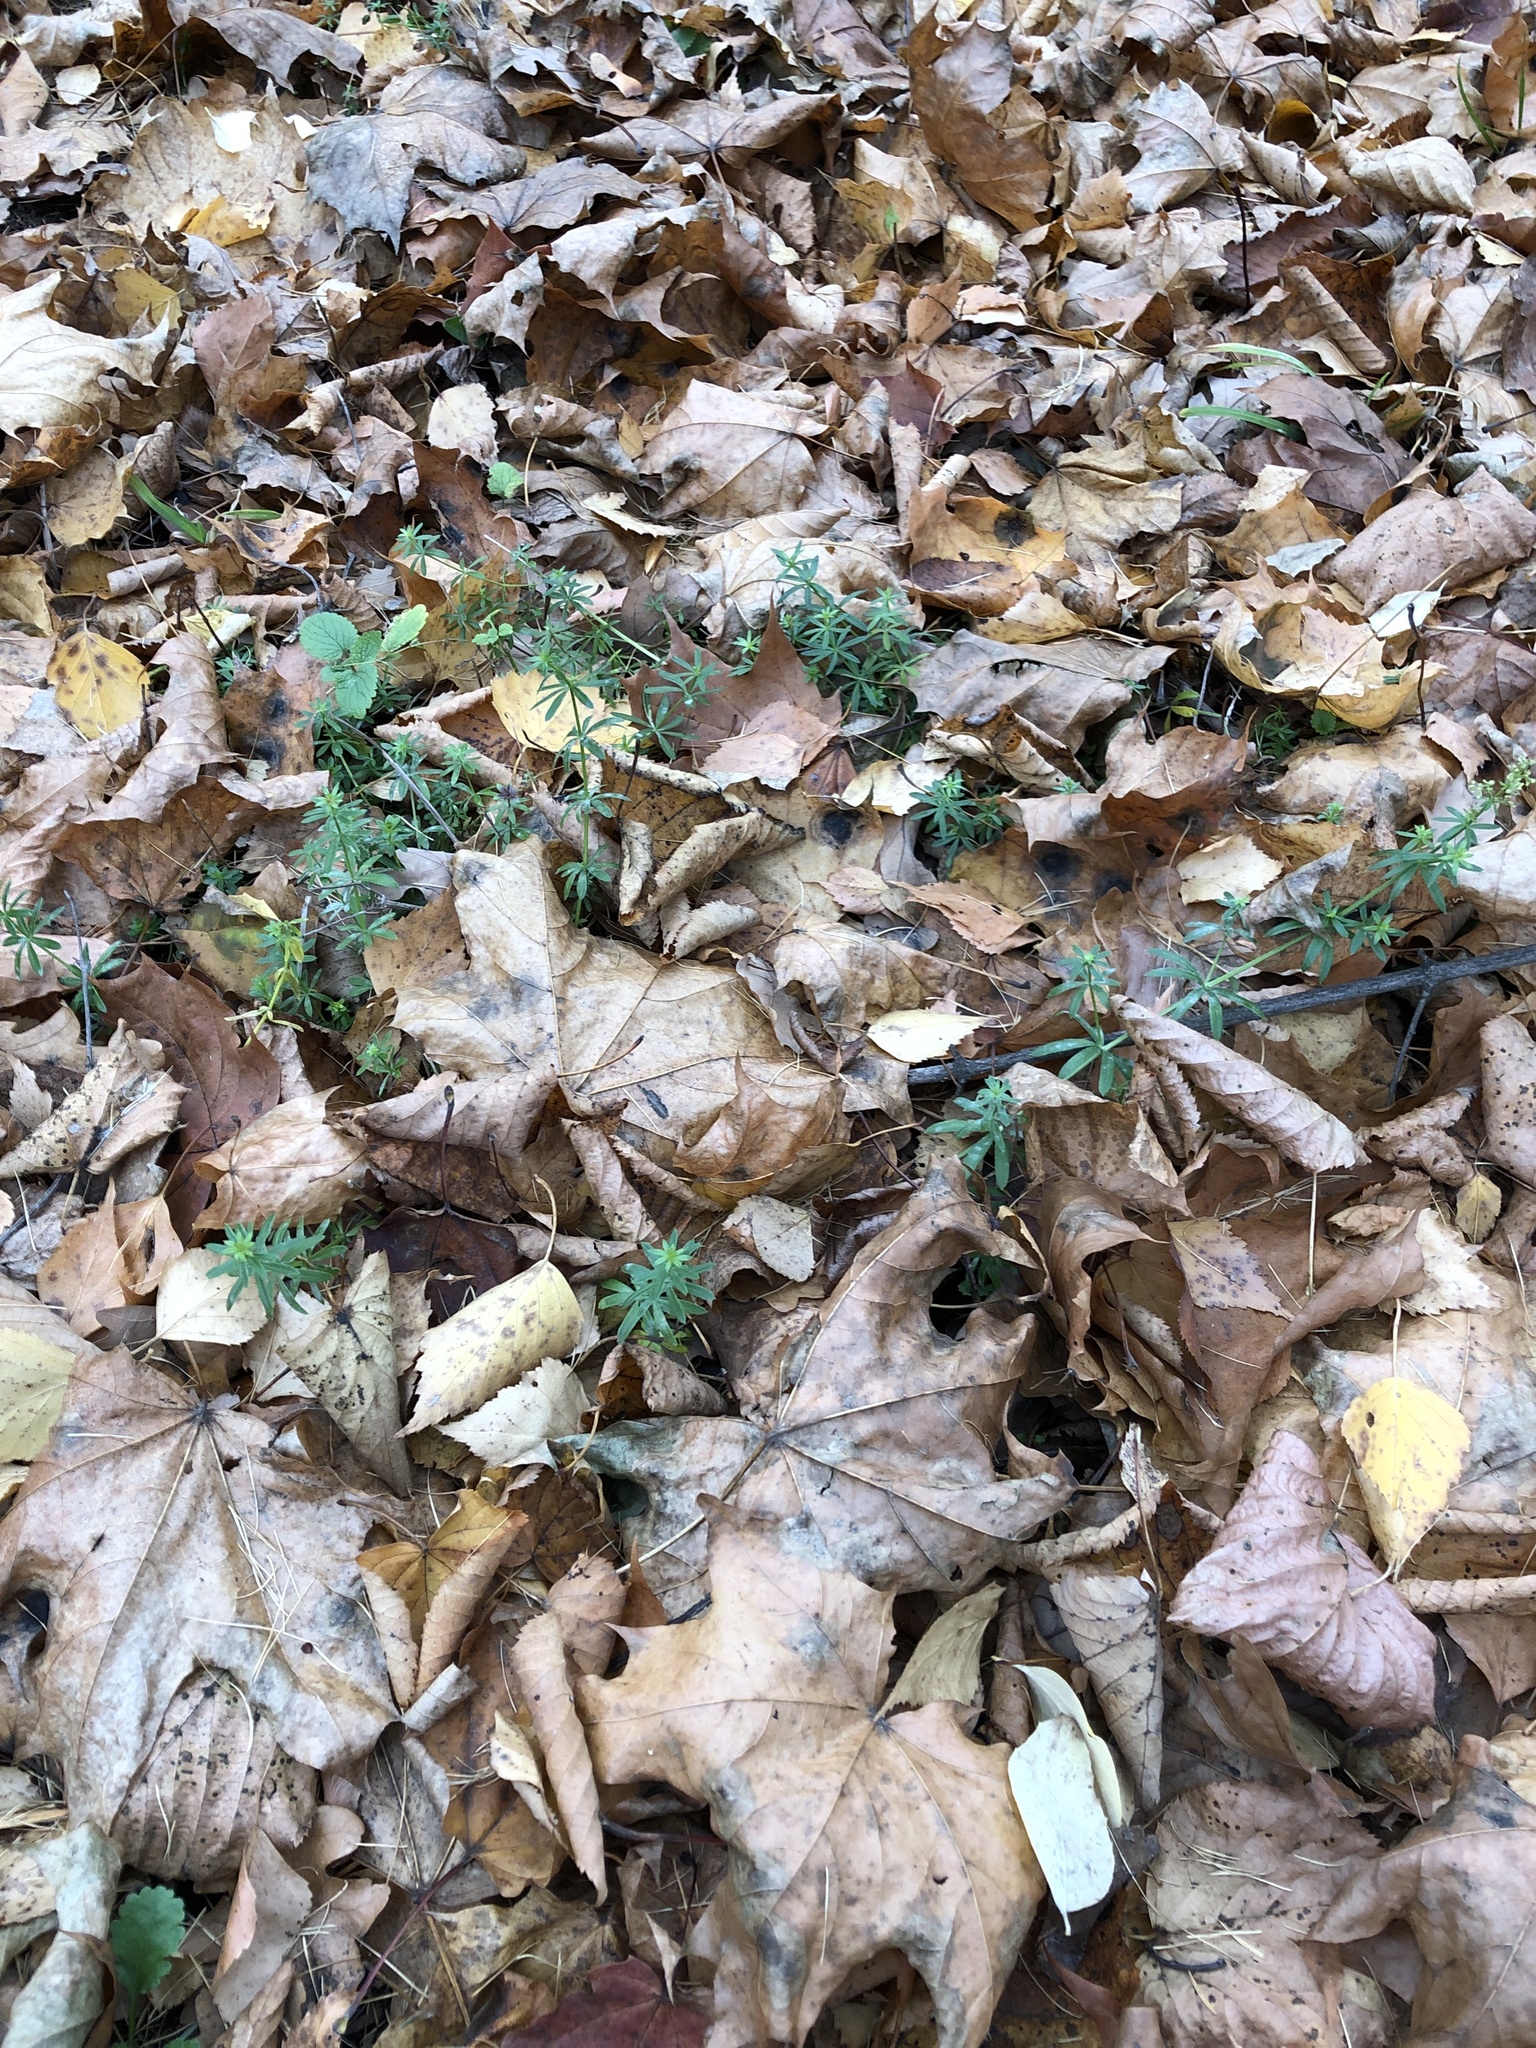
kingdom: Plantae
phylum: Tracheophyta
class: Magnoliopsida
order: Gentianales
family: Rubiaceae
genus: Galium
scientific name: Galium mollugo
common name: Hedge bedstraw
